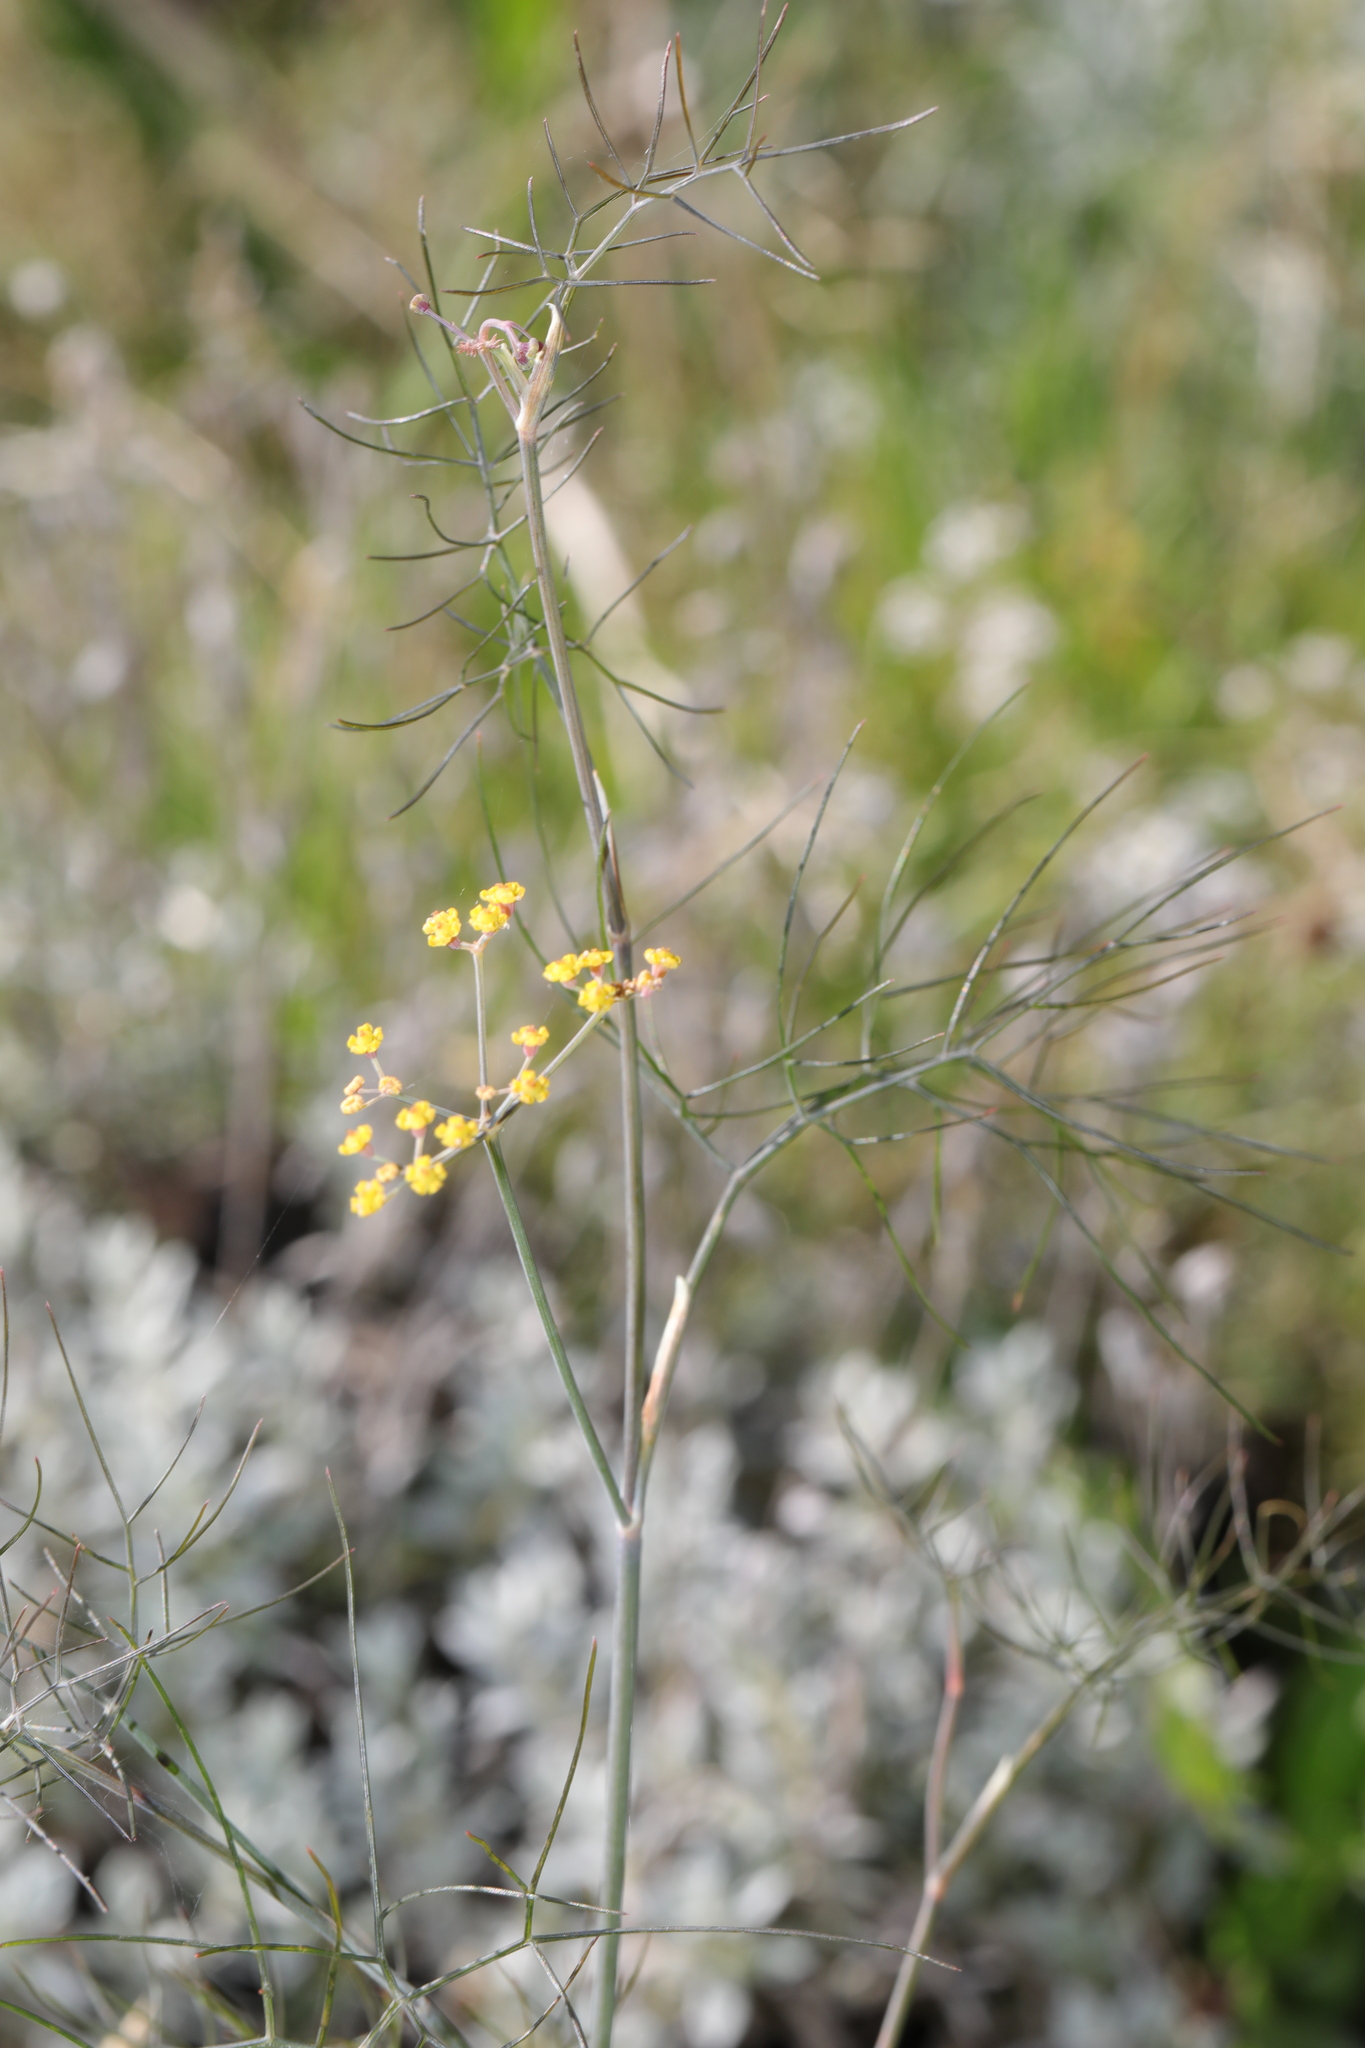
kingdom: Plantae
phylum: Tracheophyta
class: Magnoliopsida
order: Apiales
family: Apiaceae
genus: Foeniculum
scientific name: Foeniculum vulgare
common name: Fennel
